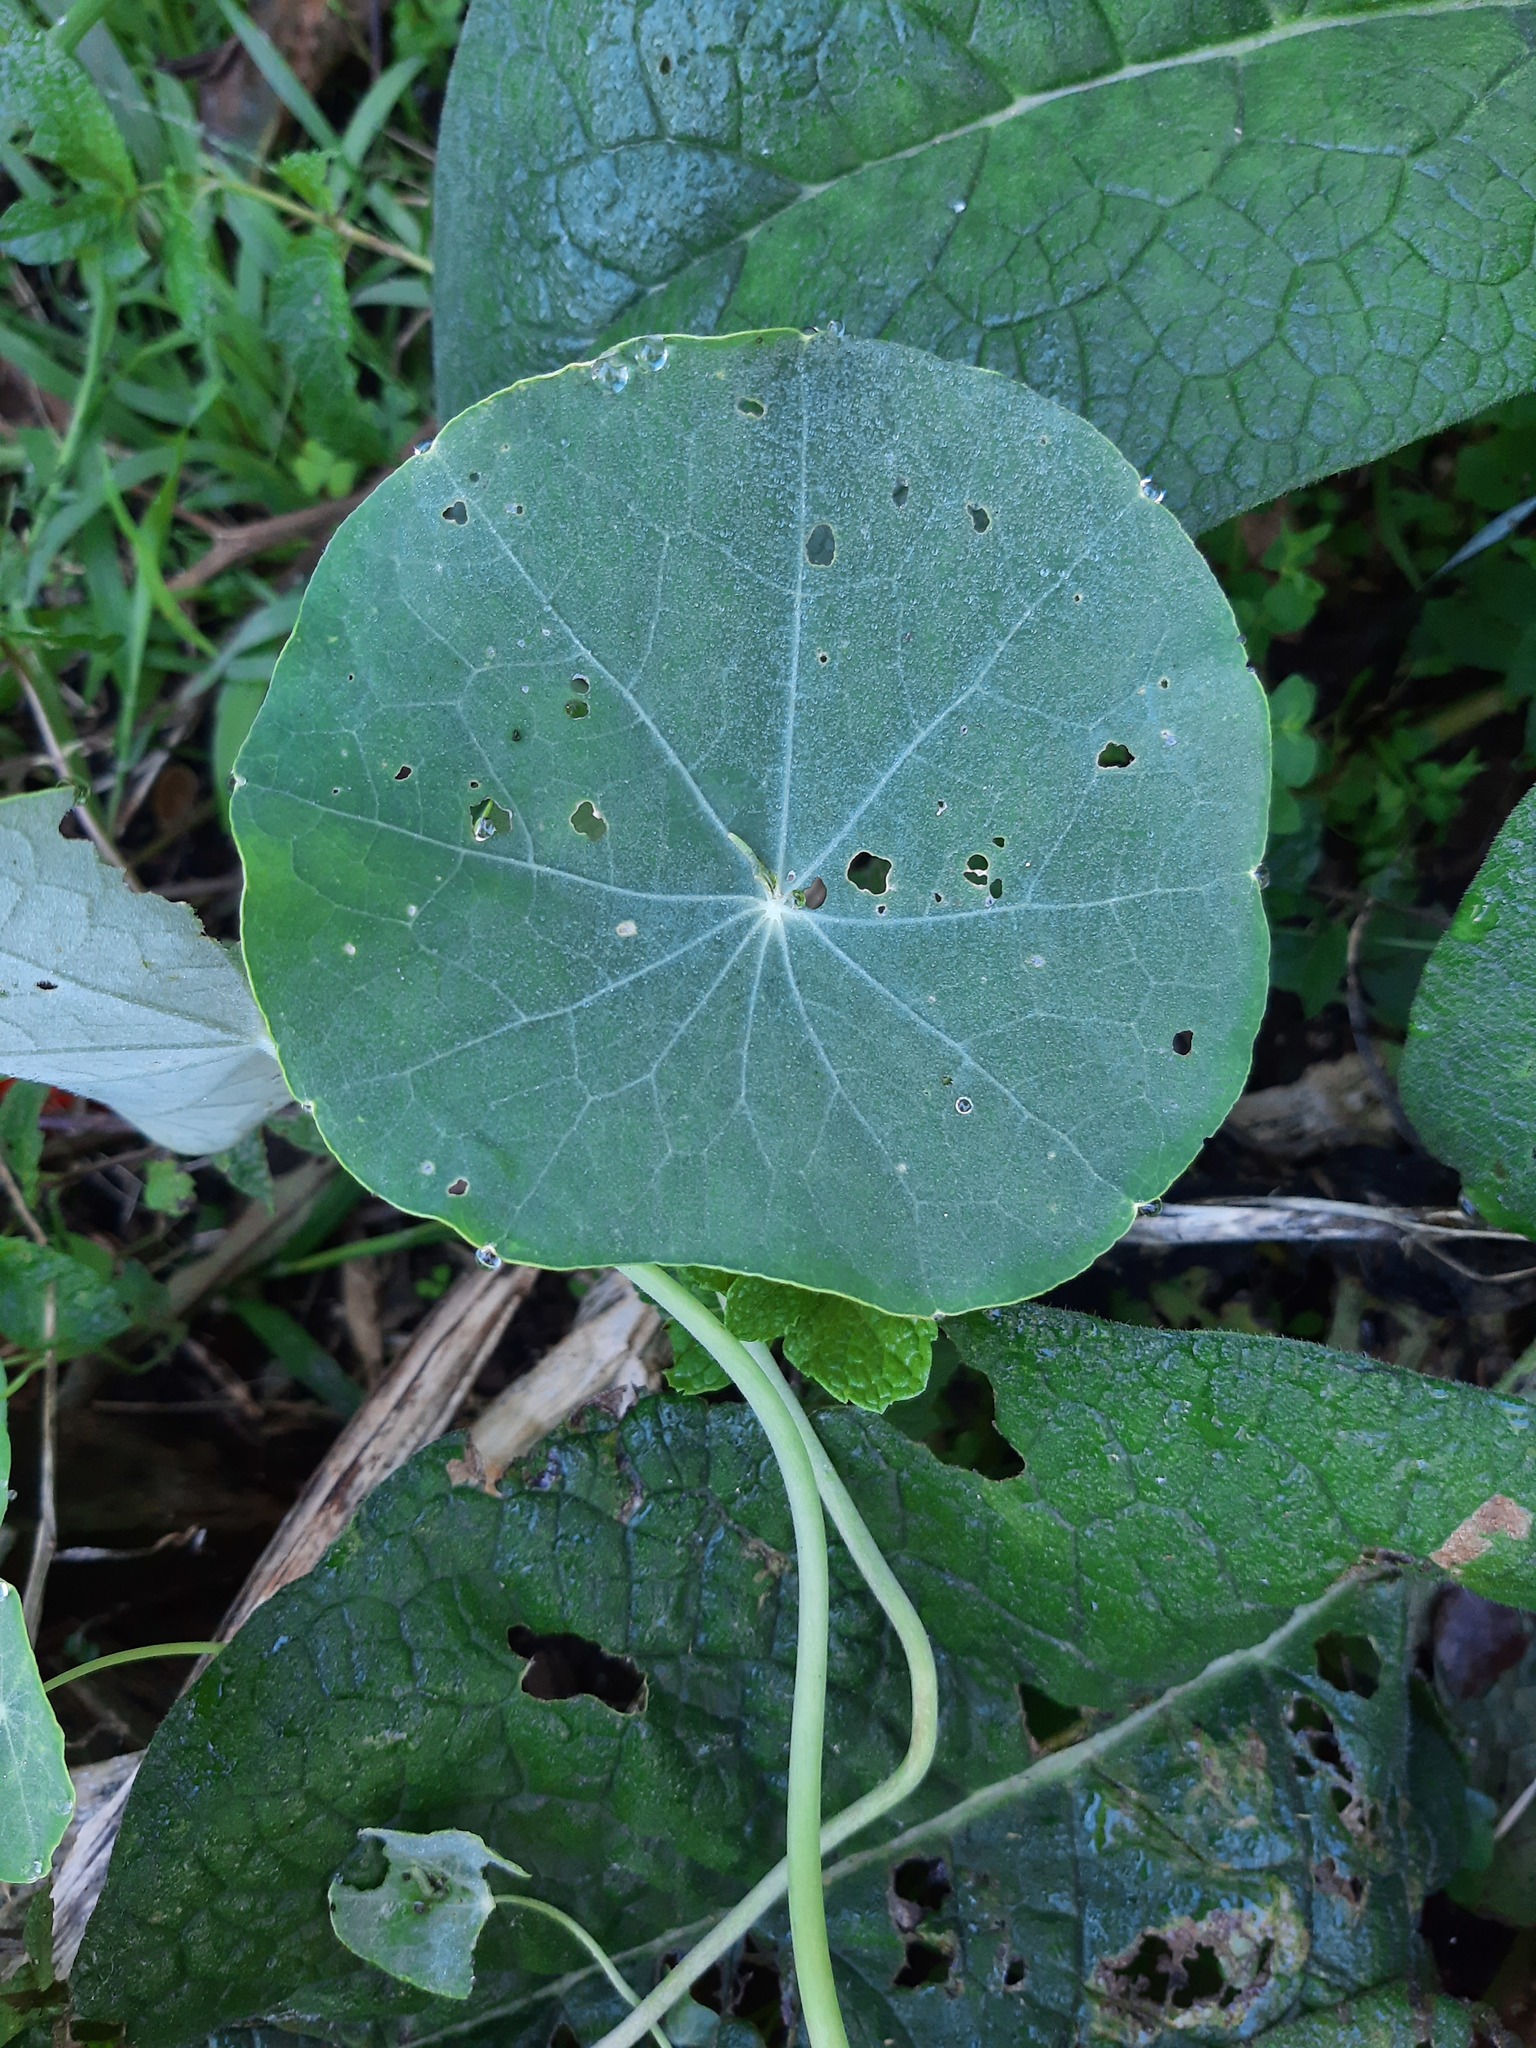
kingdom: Plantae
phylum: Tracheophyta
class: Magnoliopsida
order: Brassicales
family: Tropaeolaceae
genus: Tropaeolum
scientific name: Tropaeolum majus
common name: Nasturtium
